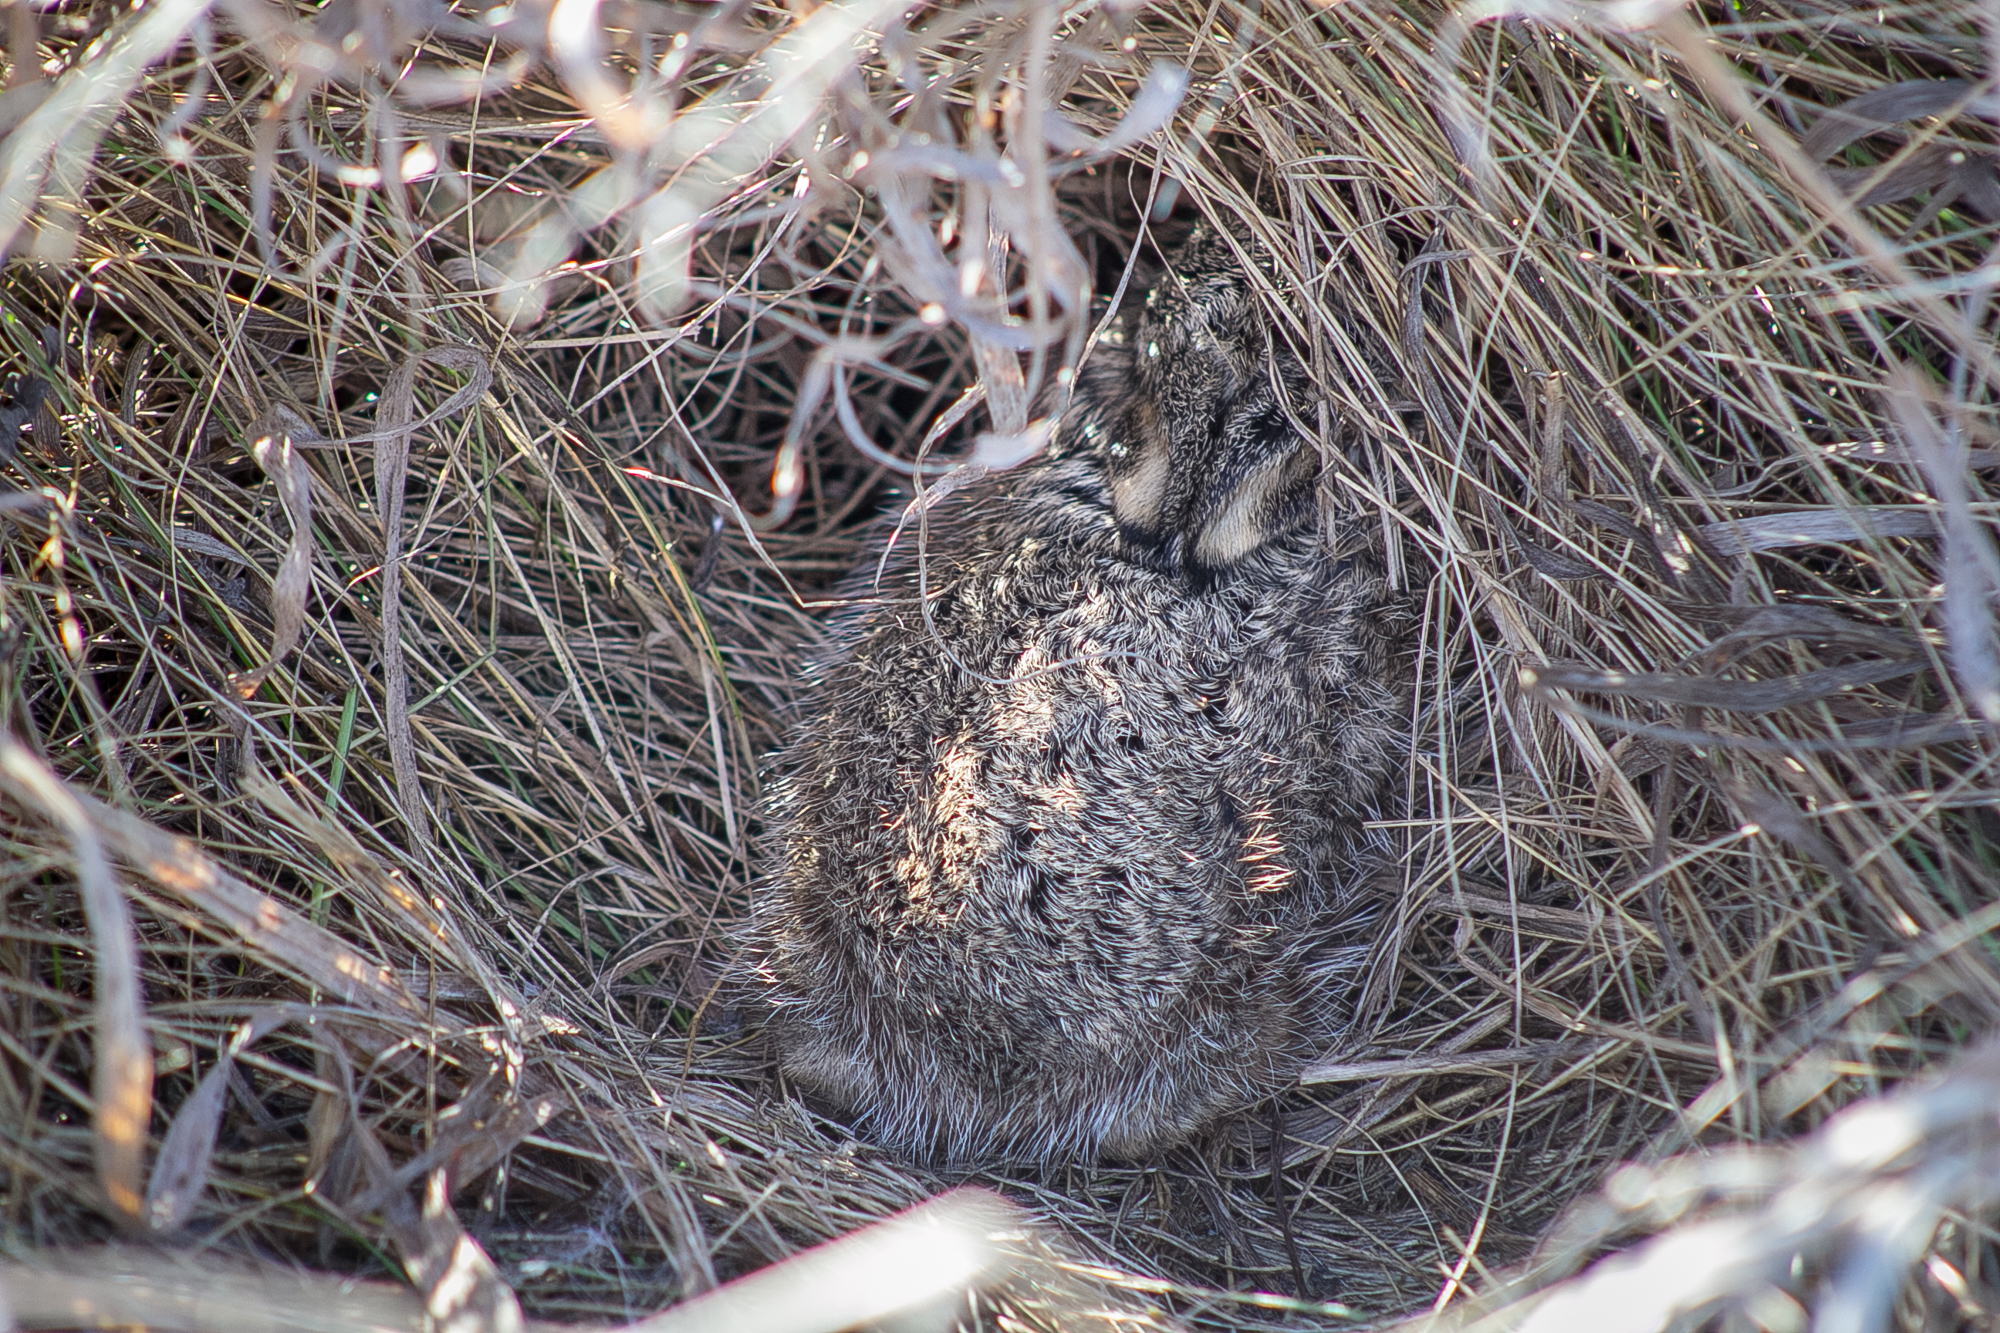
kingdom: Animalia
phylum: Chordata
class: Mammalia
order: Lagomorpha
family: Leporidae
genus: Lepus
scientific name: Lepus europaeus
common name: European hare
